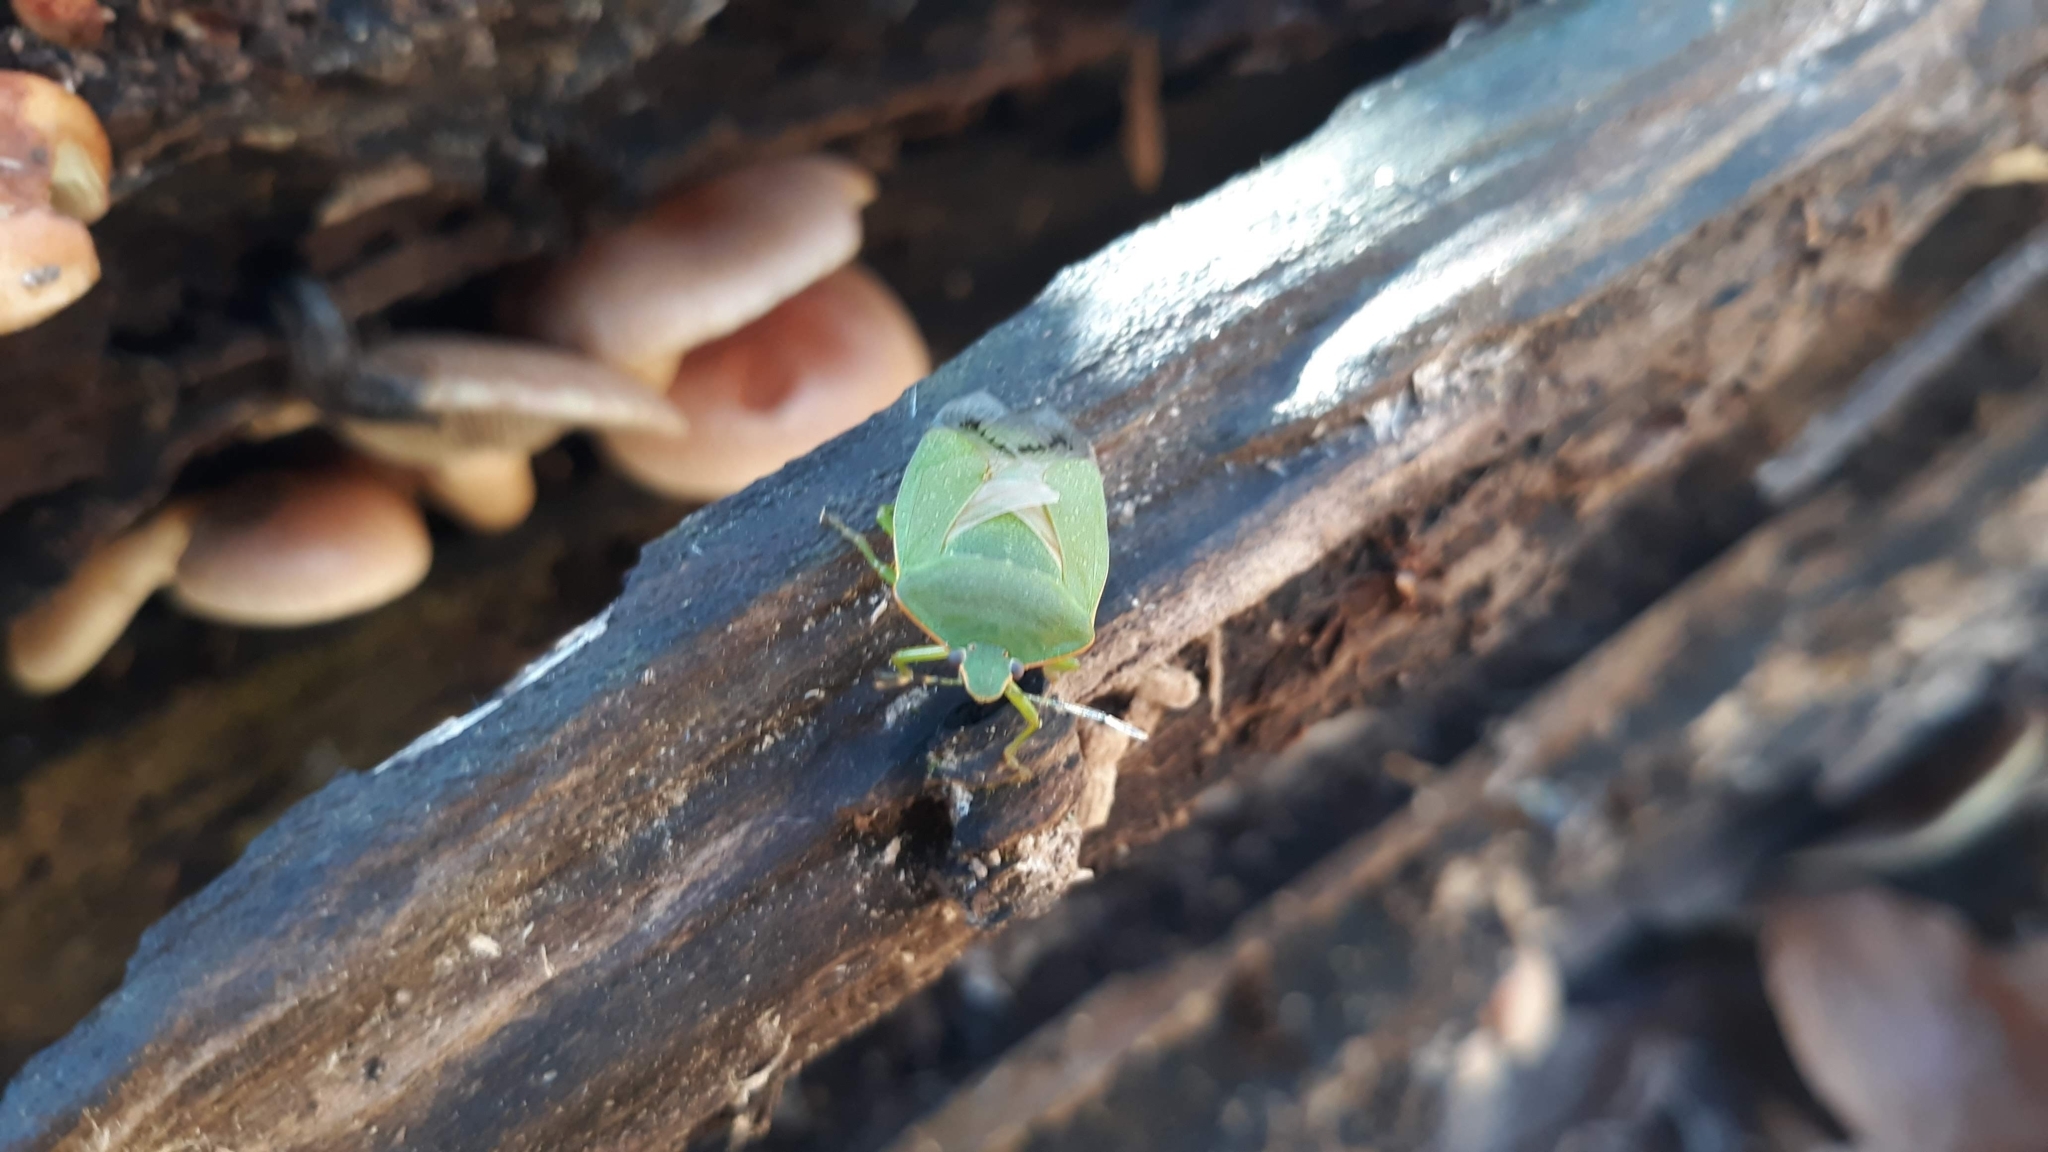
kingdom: Animalia
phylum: Arthropoda
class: Insecta
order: Hemiptera
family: Pentatomidae
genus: Chinavia
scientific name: Chinavia hilaris
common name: Green stink bug
